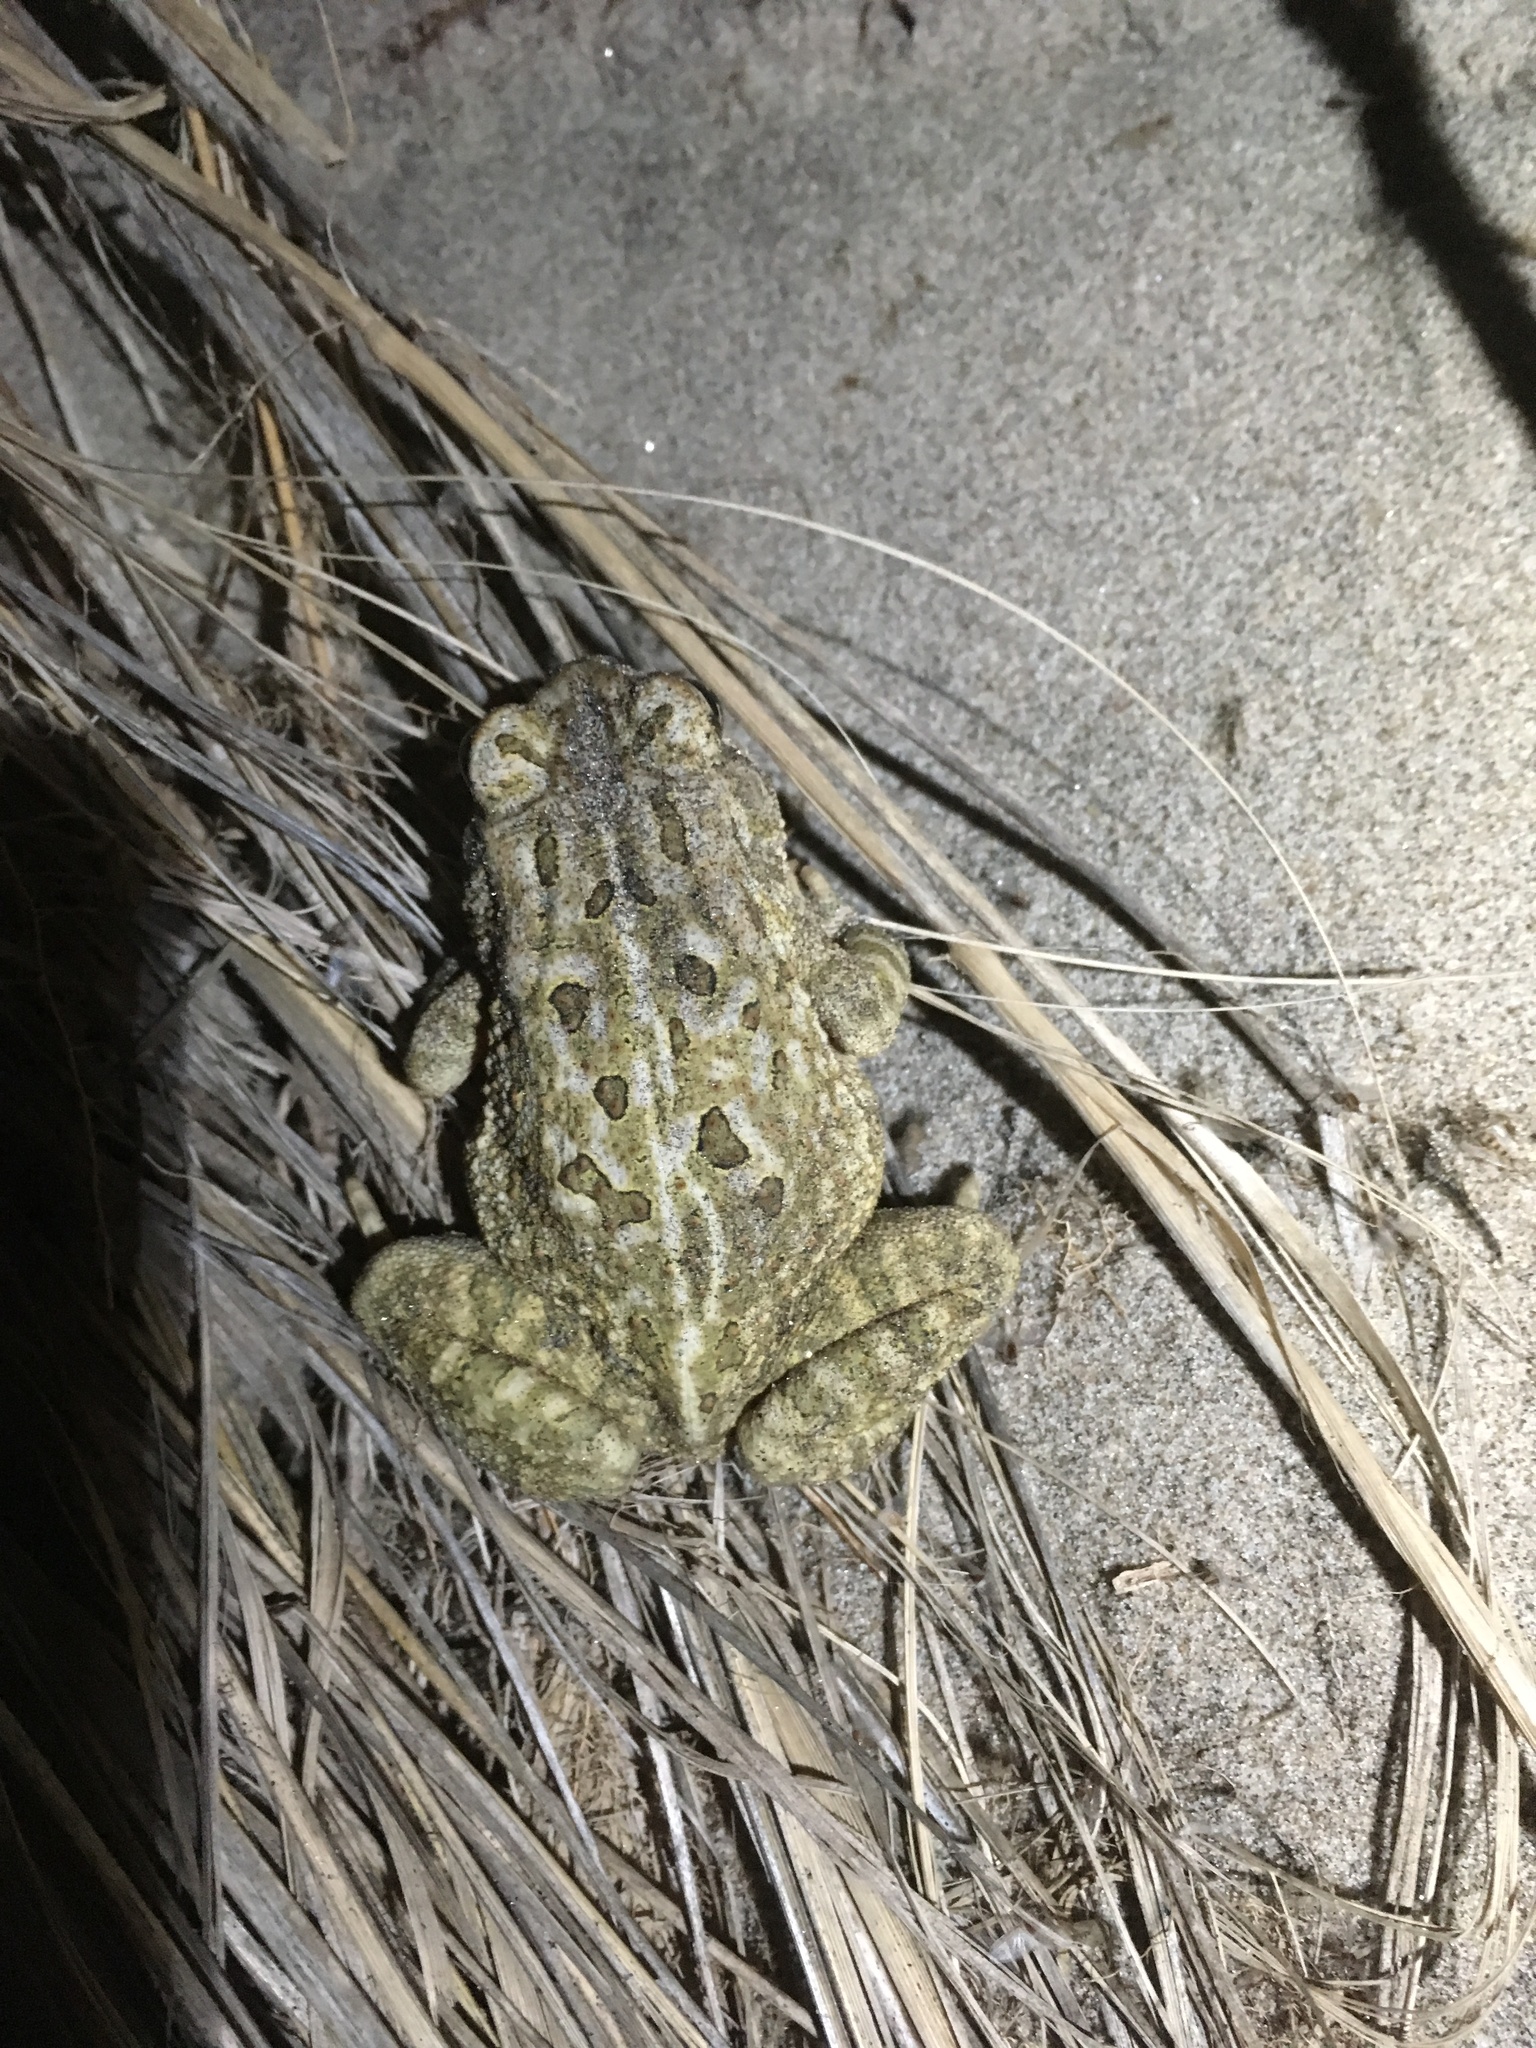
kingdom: Animalia
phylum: Chordata
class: Amphibia
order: Anura
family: Bufonidae
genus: Anaxyrus
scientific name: Anaxyrus fowleri
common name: Fowler's toad
